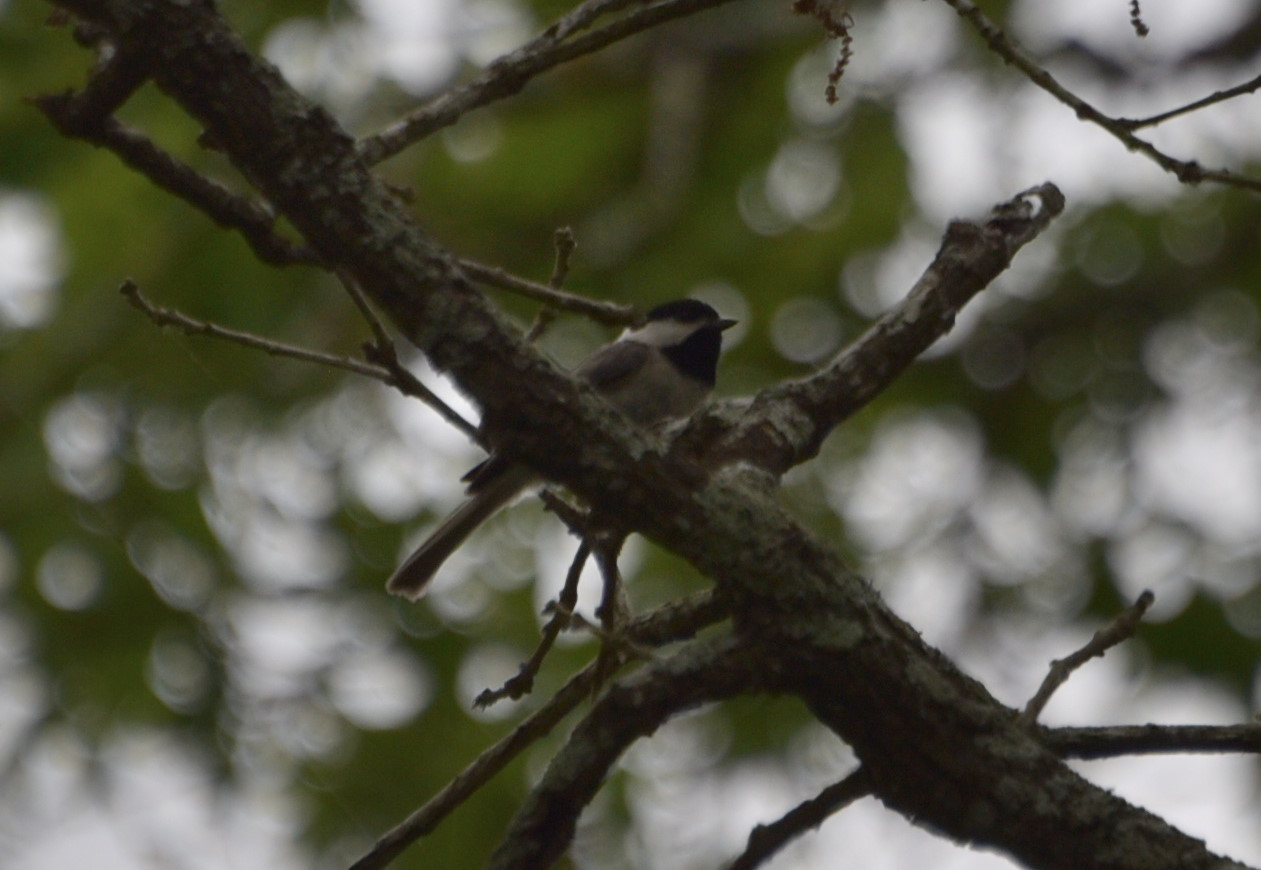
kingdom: Animalia
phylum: Chordata
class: Aves
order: Passeriformes
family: Paridae
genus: Poecile
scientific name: Poecile carolinensis
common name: Carolina chickadee
